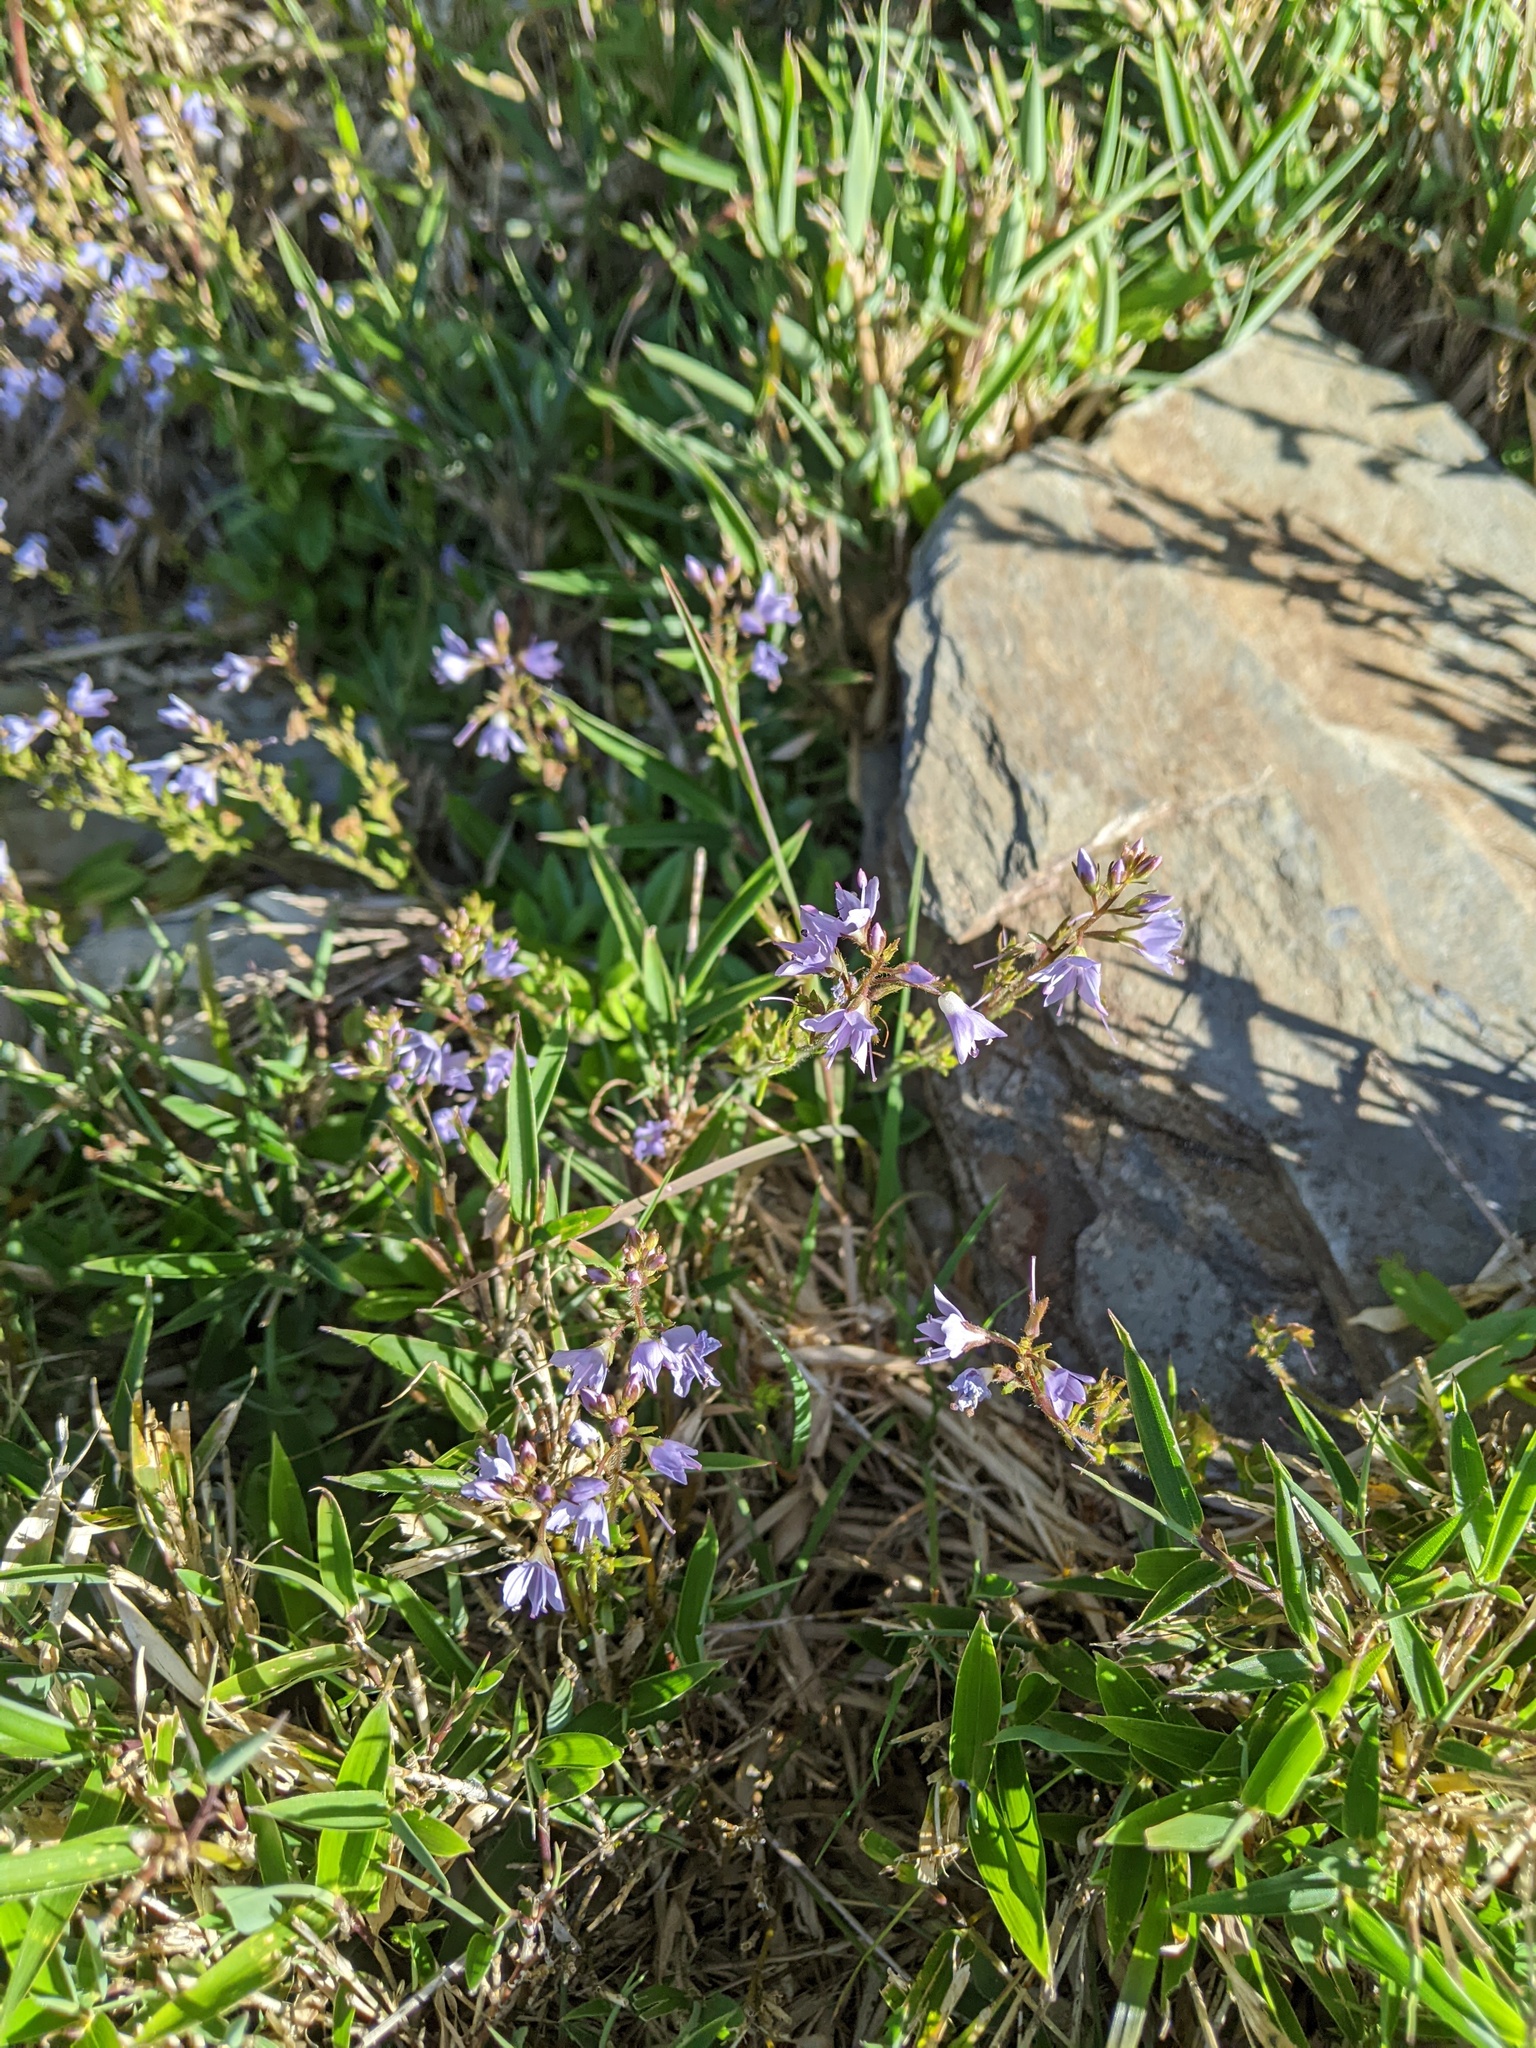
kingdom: Plantae
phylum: Tracheophyta
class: Magnoliopsida
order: Lamiales
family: Plantaginaceae
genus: Veronica
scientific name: Veronica morrisonicola
